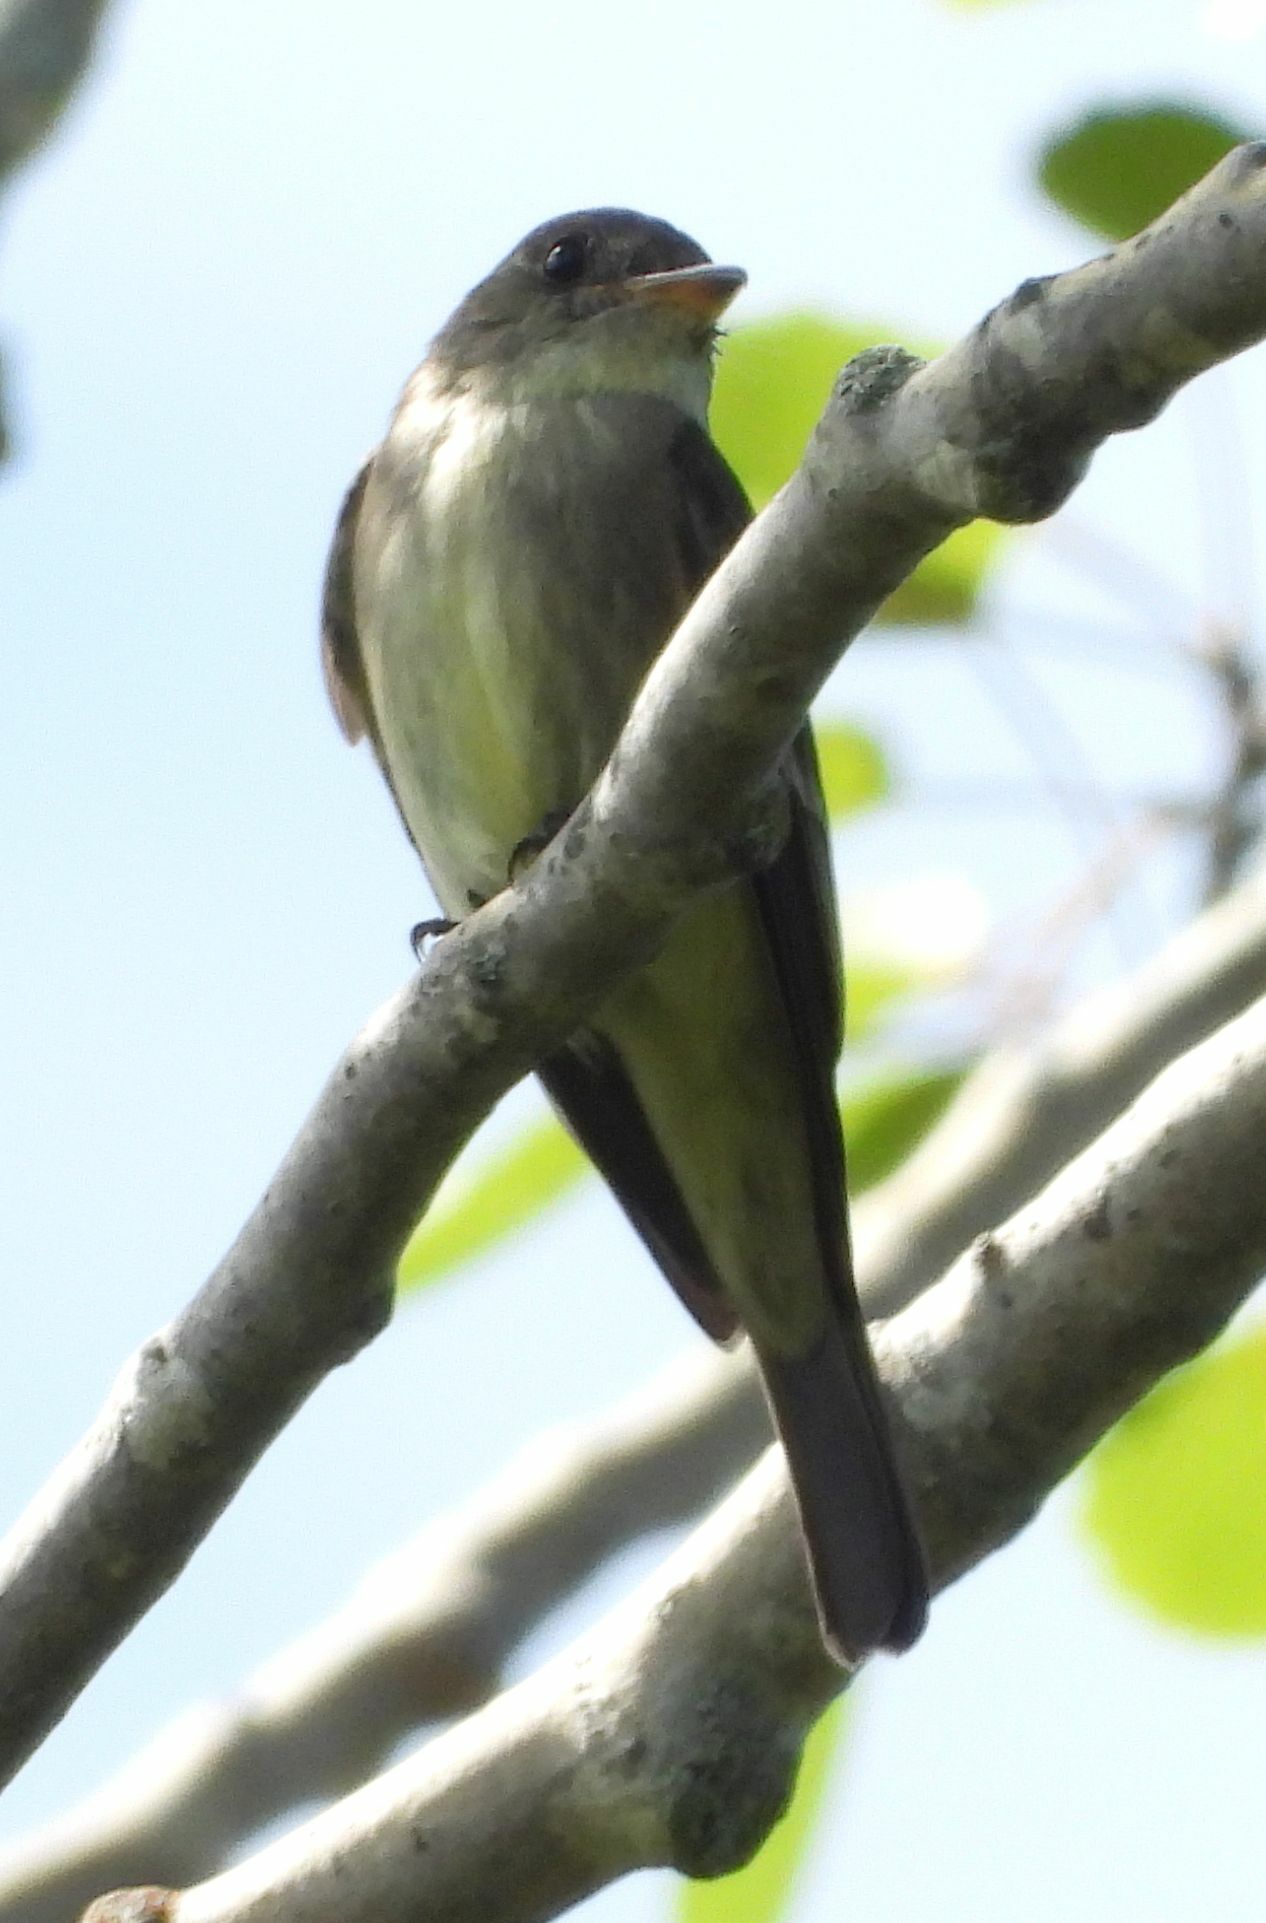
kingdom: Animalia
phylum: Chordata
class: Aves
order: Passeriformes
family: Tyrannidae
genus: Contopus
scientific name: Contopus virens
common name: Eastern wood-pewee
